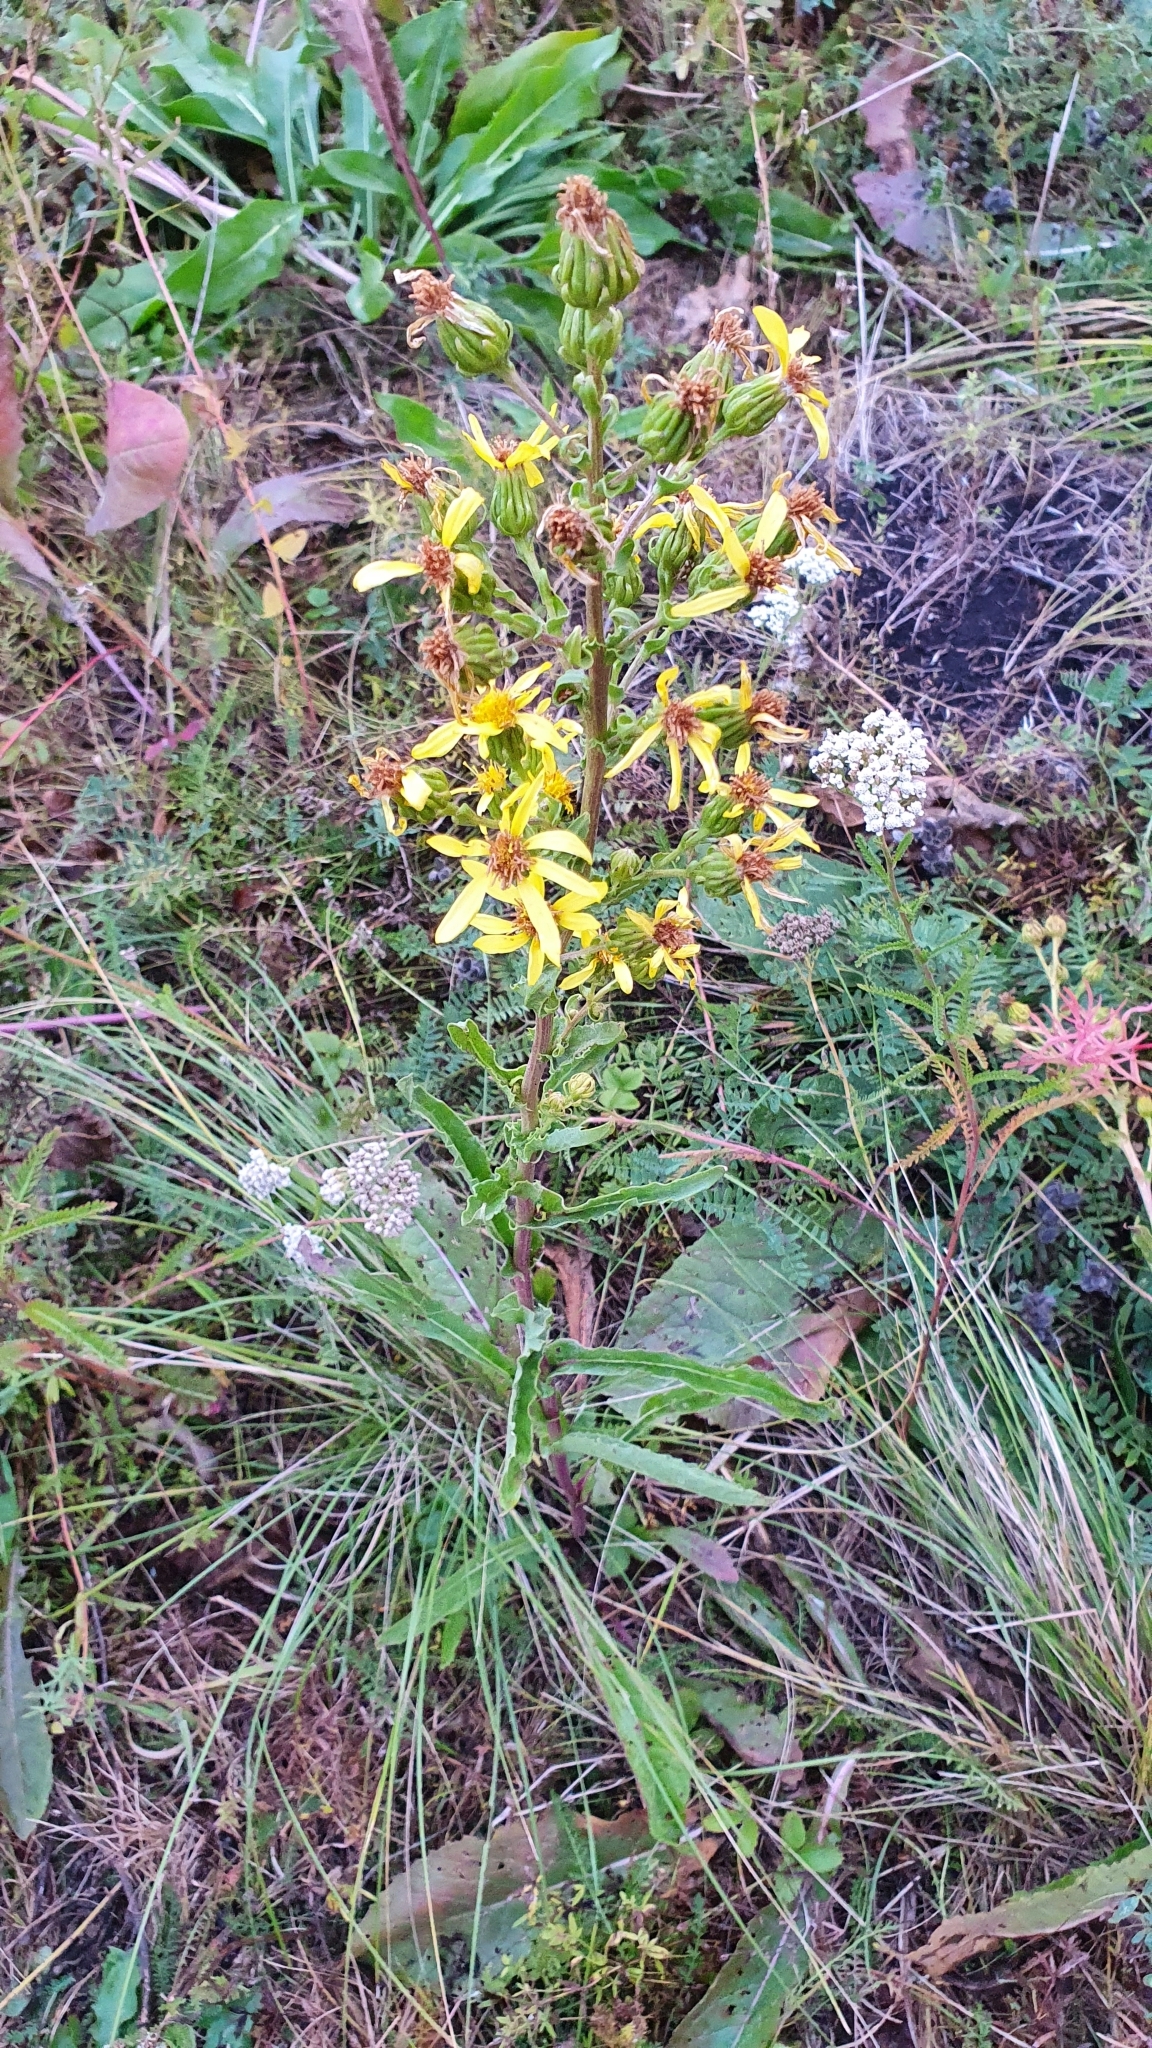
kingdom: Plantae
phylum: Tracheophyta
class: Magnoliopsida
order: Asterales
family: Asteraceae
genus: Jacobaea
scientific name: Jacobaea racemosa
